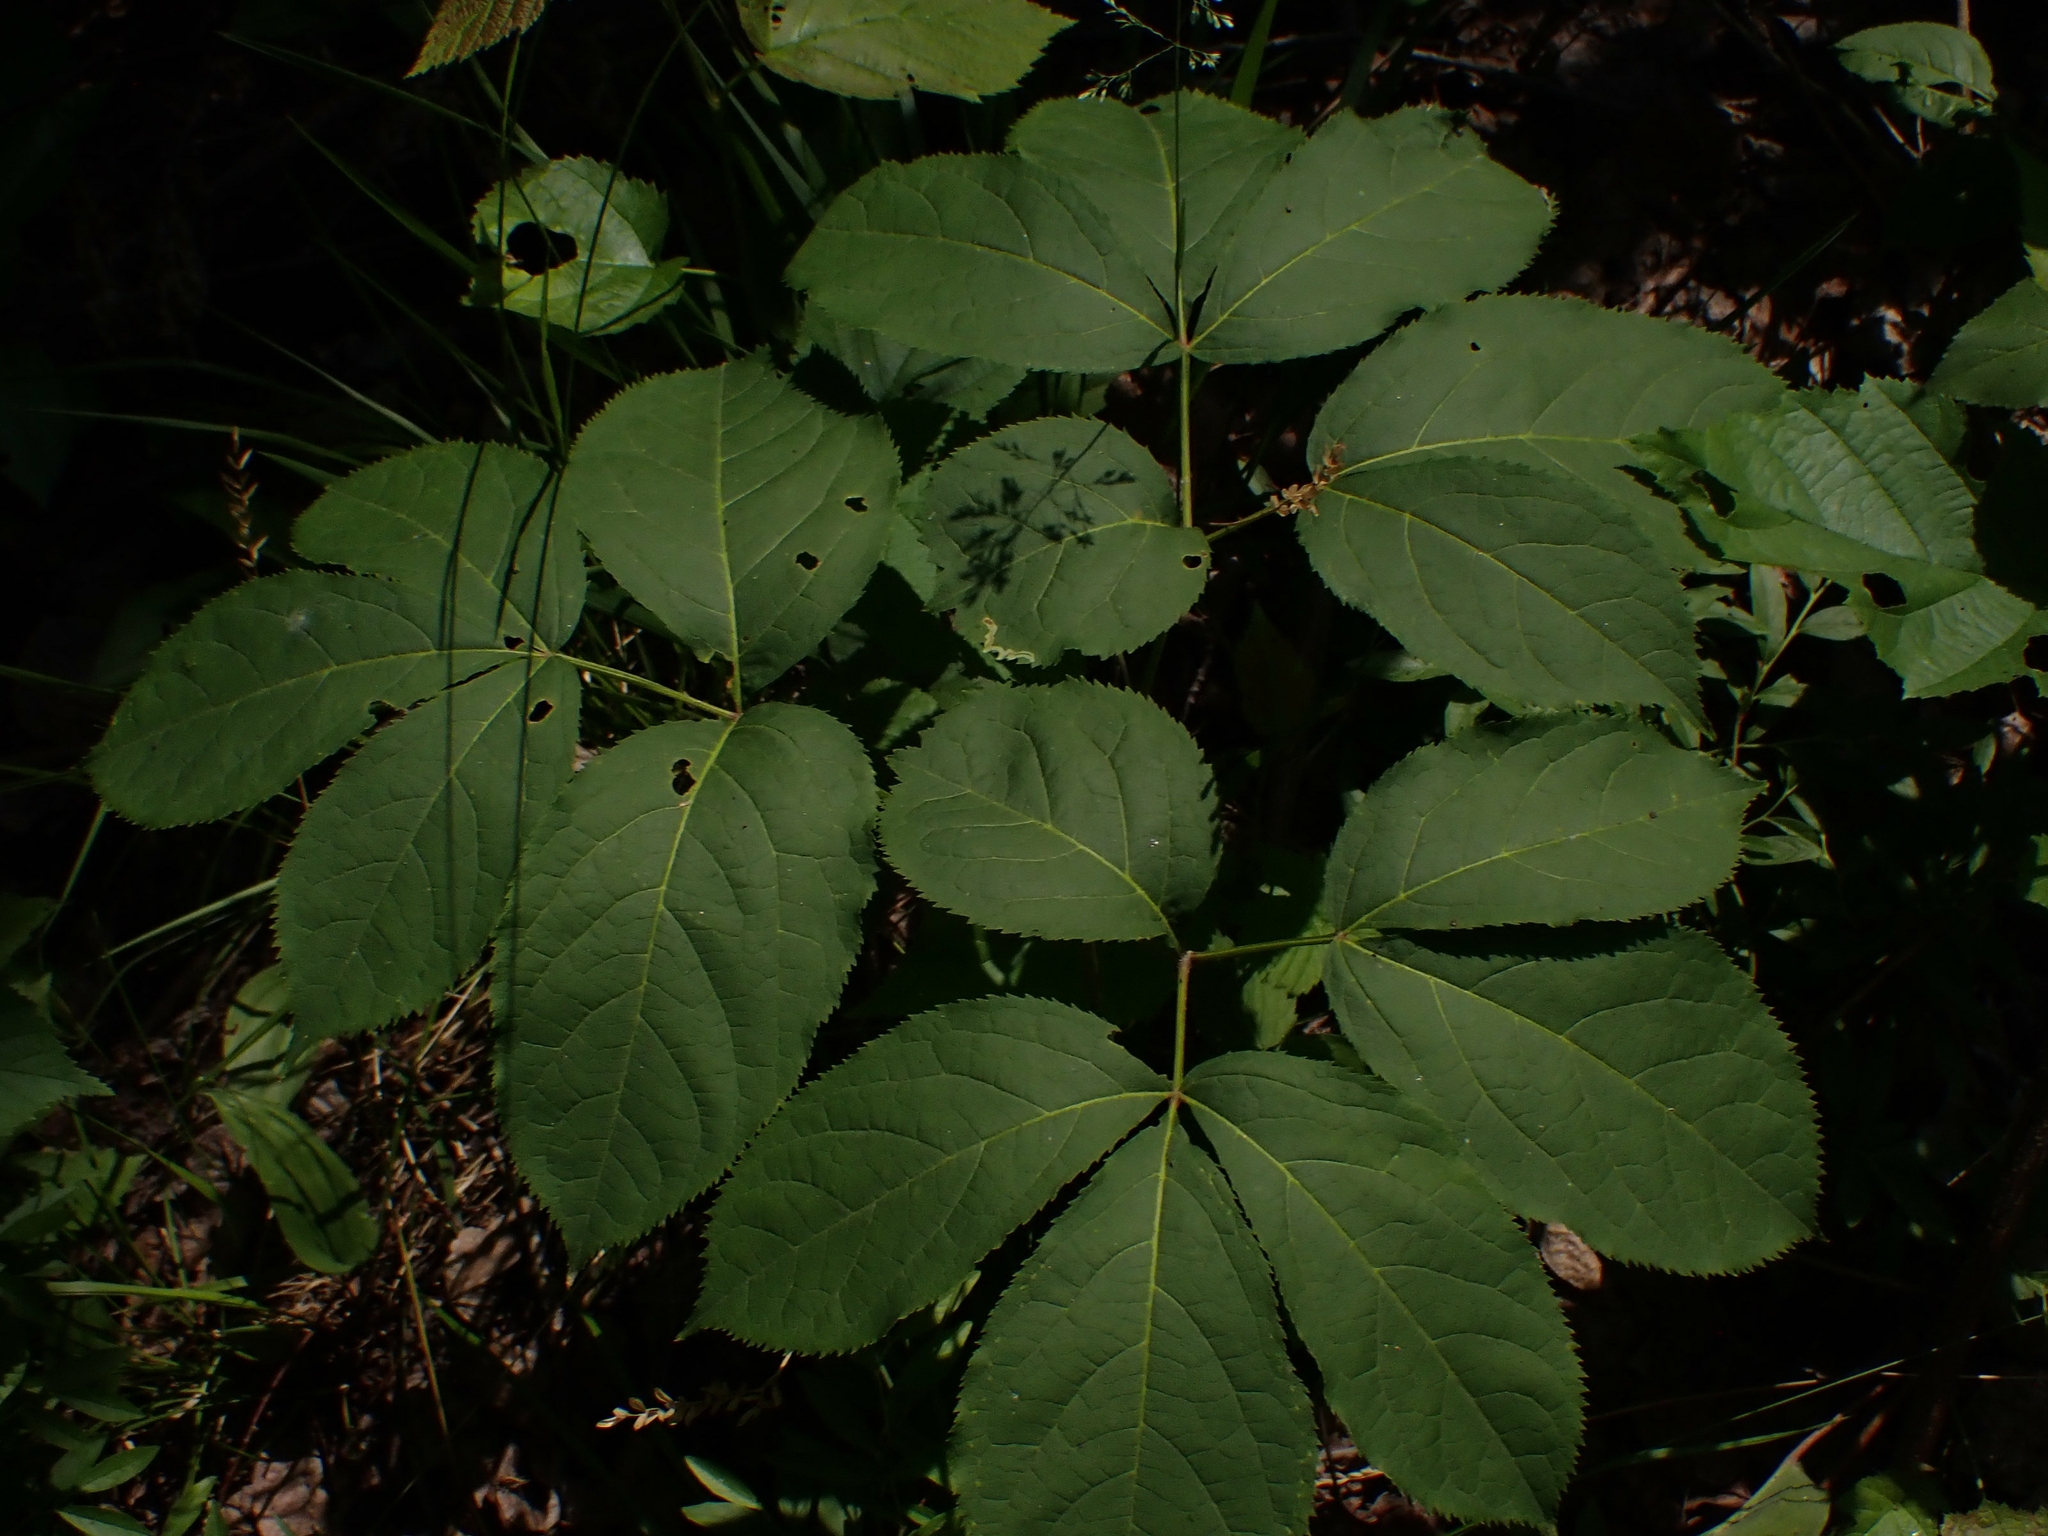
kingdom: Plantae
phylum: Tracheophyta
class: Magnoliopsida
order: Apiales
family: Araliaceae
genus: Aralia
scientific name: Aralia nudicaulis
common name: Wild sarsaparilla
